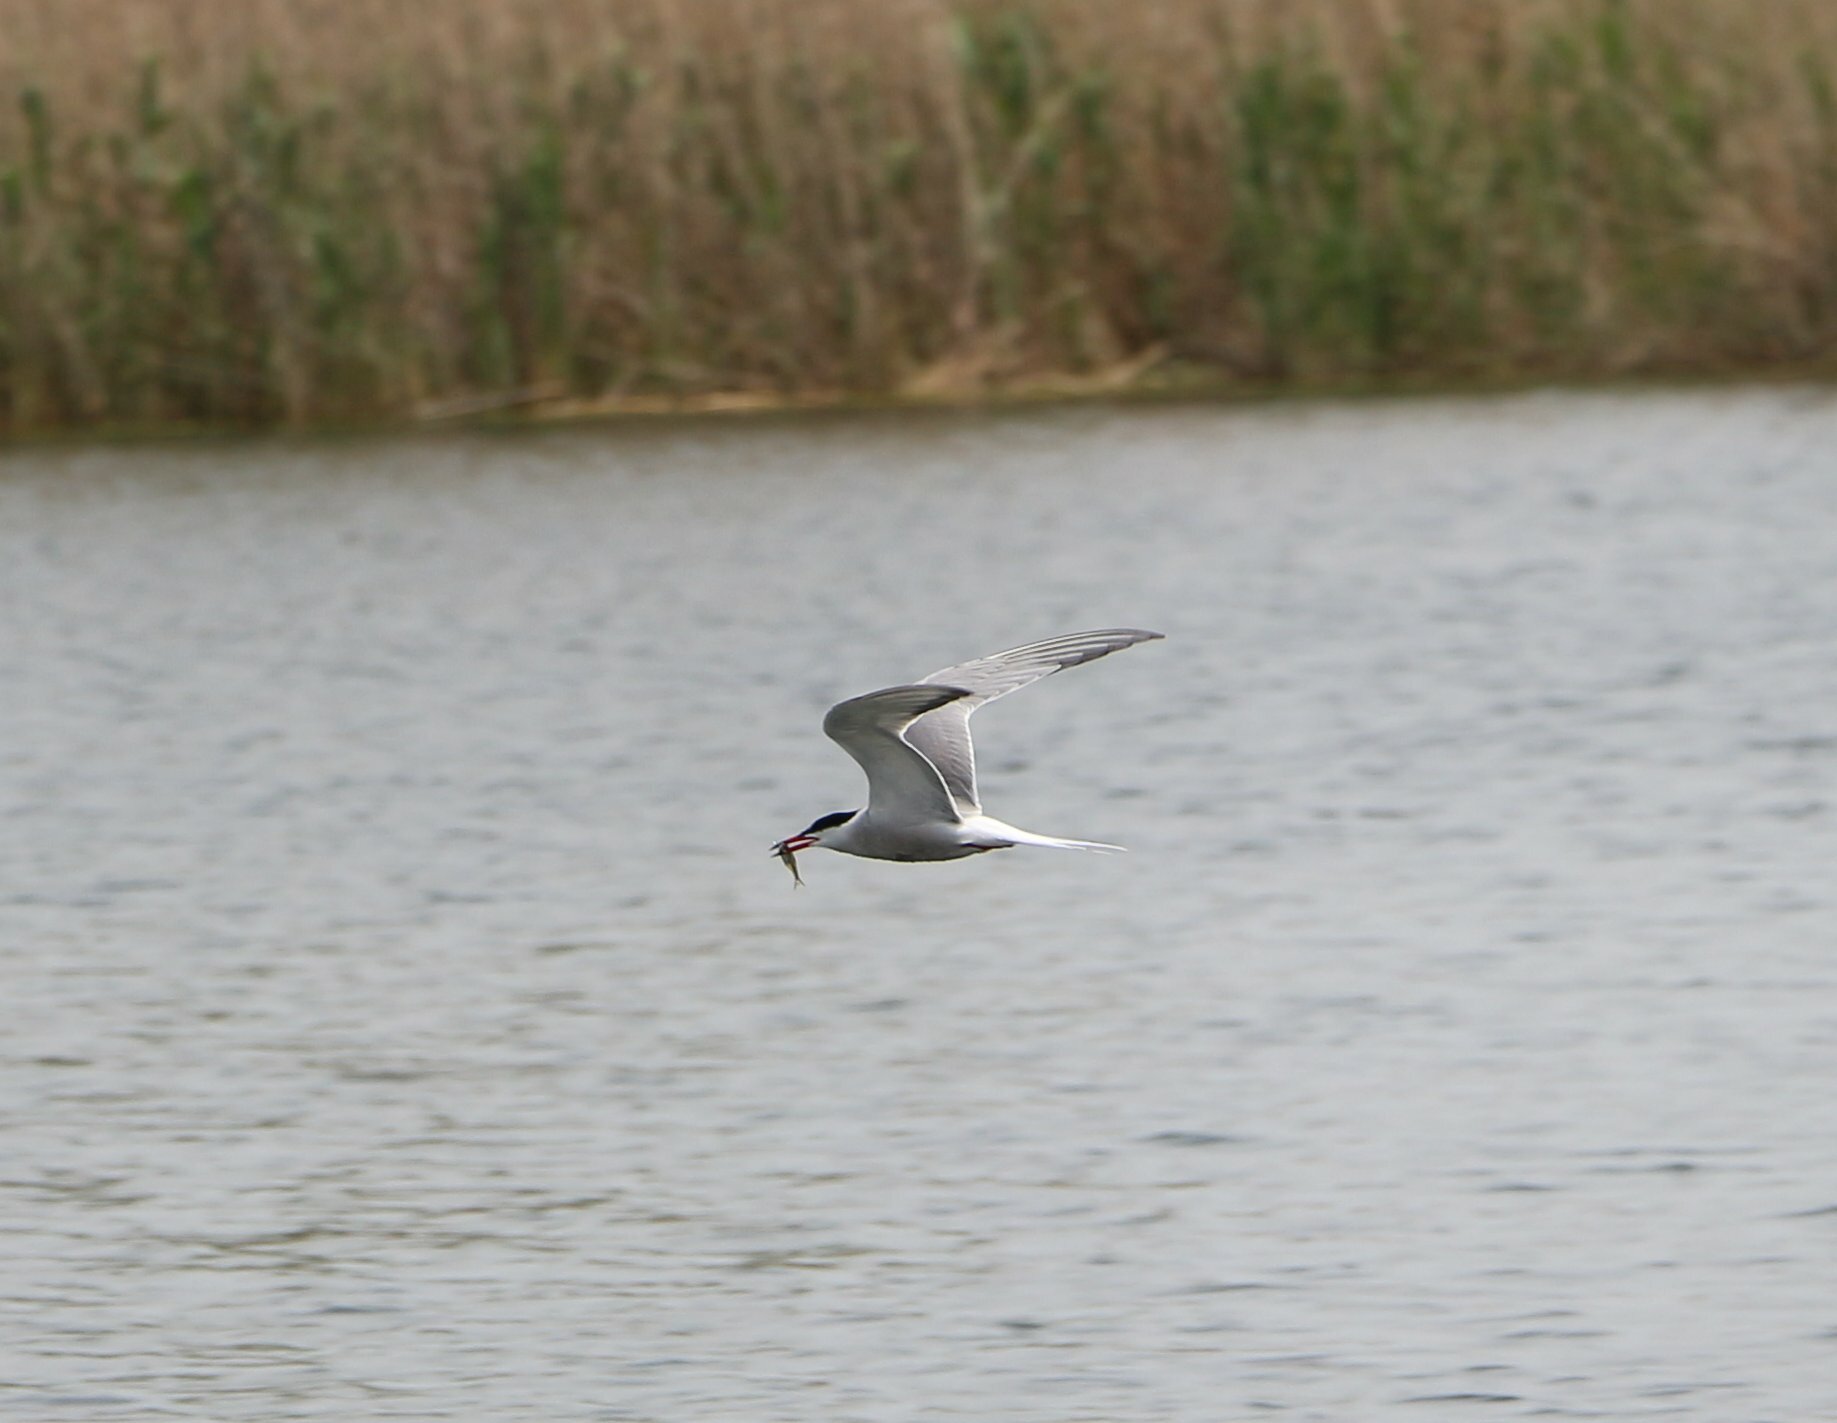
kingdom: Animalia
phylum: Chordata
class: Aves
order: Charadriiformes
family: Laridae
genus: Sterna
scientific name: Sterna hirundo
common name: Common tern
